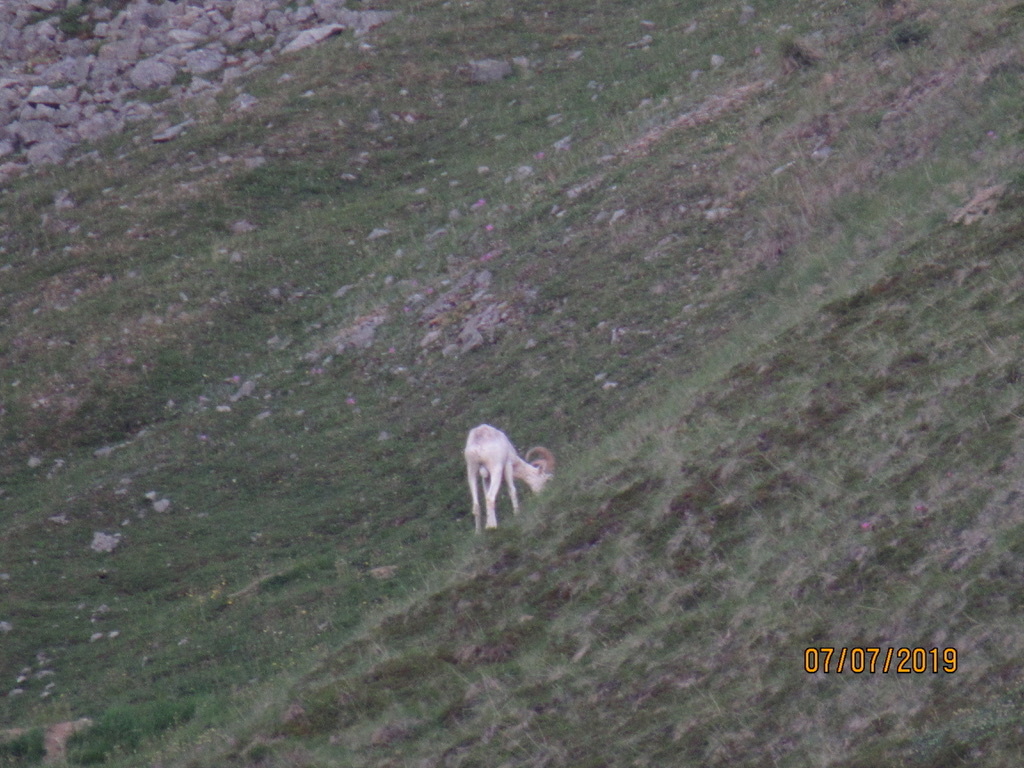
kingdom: Animalia
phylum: Chordata
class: Mammalia
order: Artiodactyla
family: Bovidae
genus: Ovis
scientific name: Ovis dalli
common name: Dall's sheep
